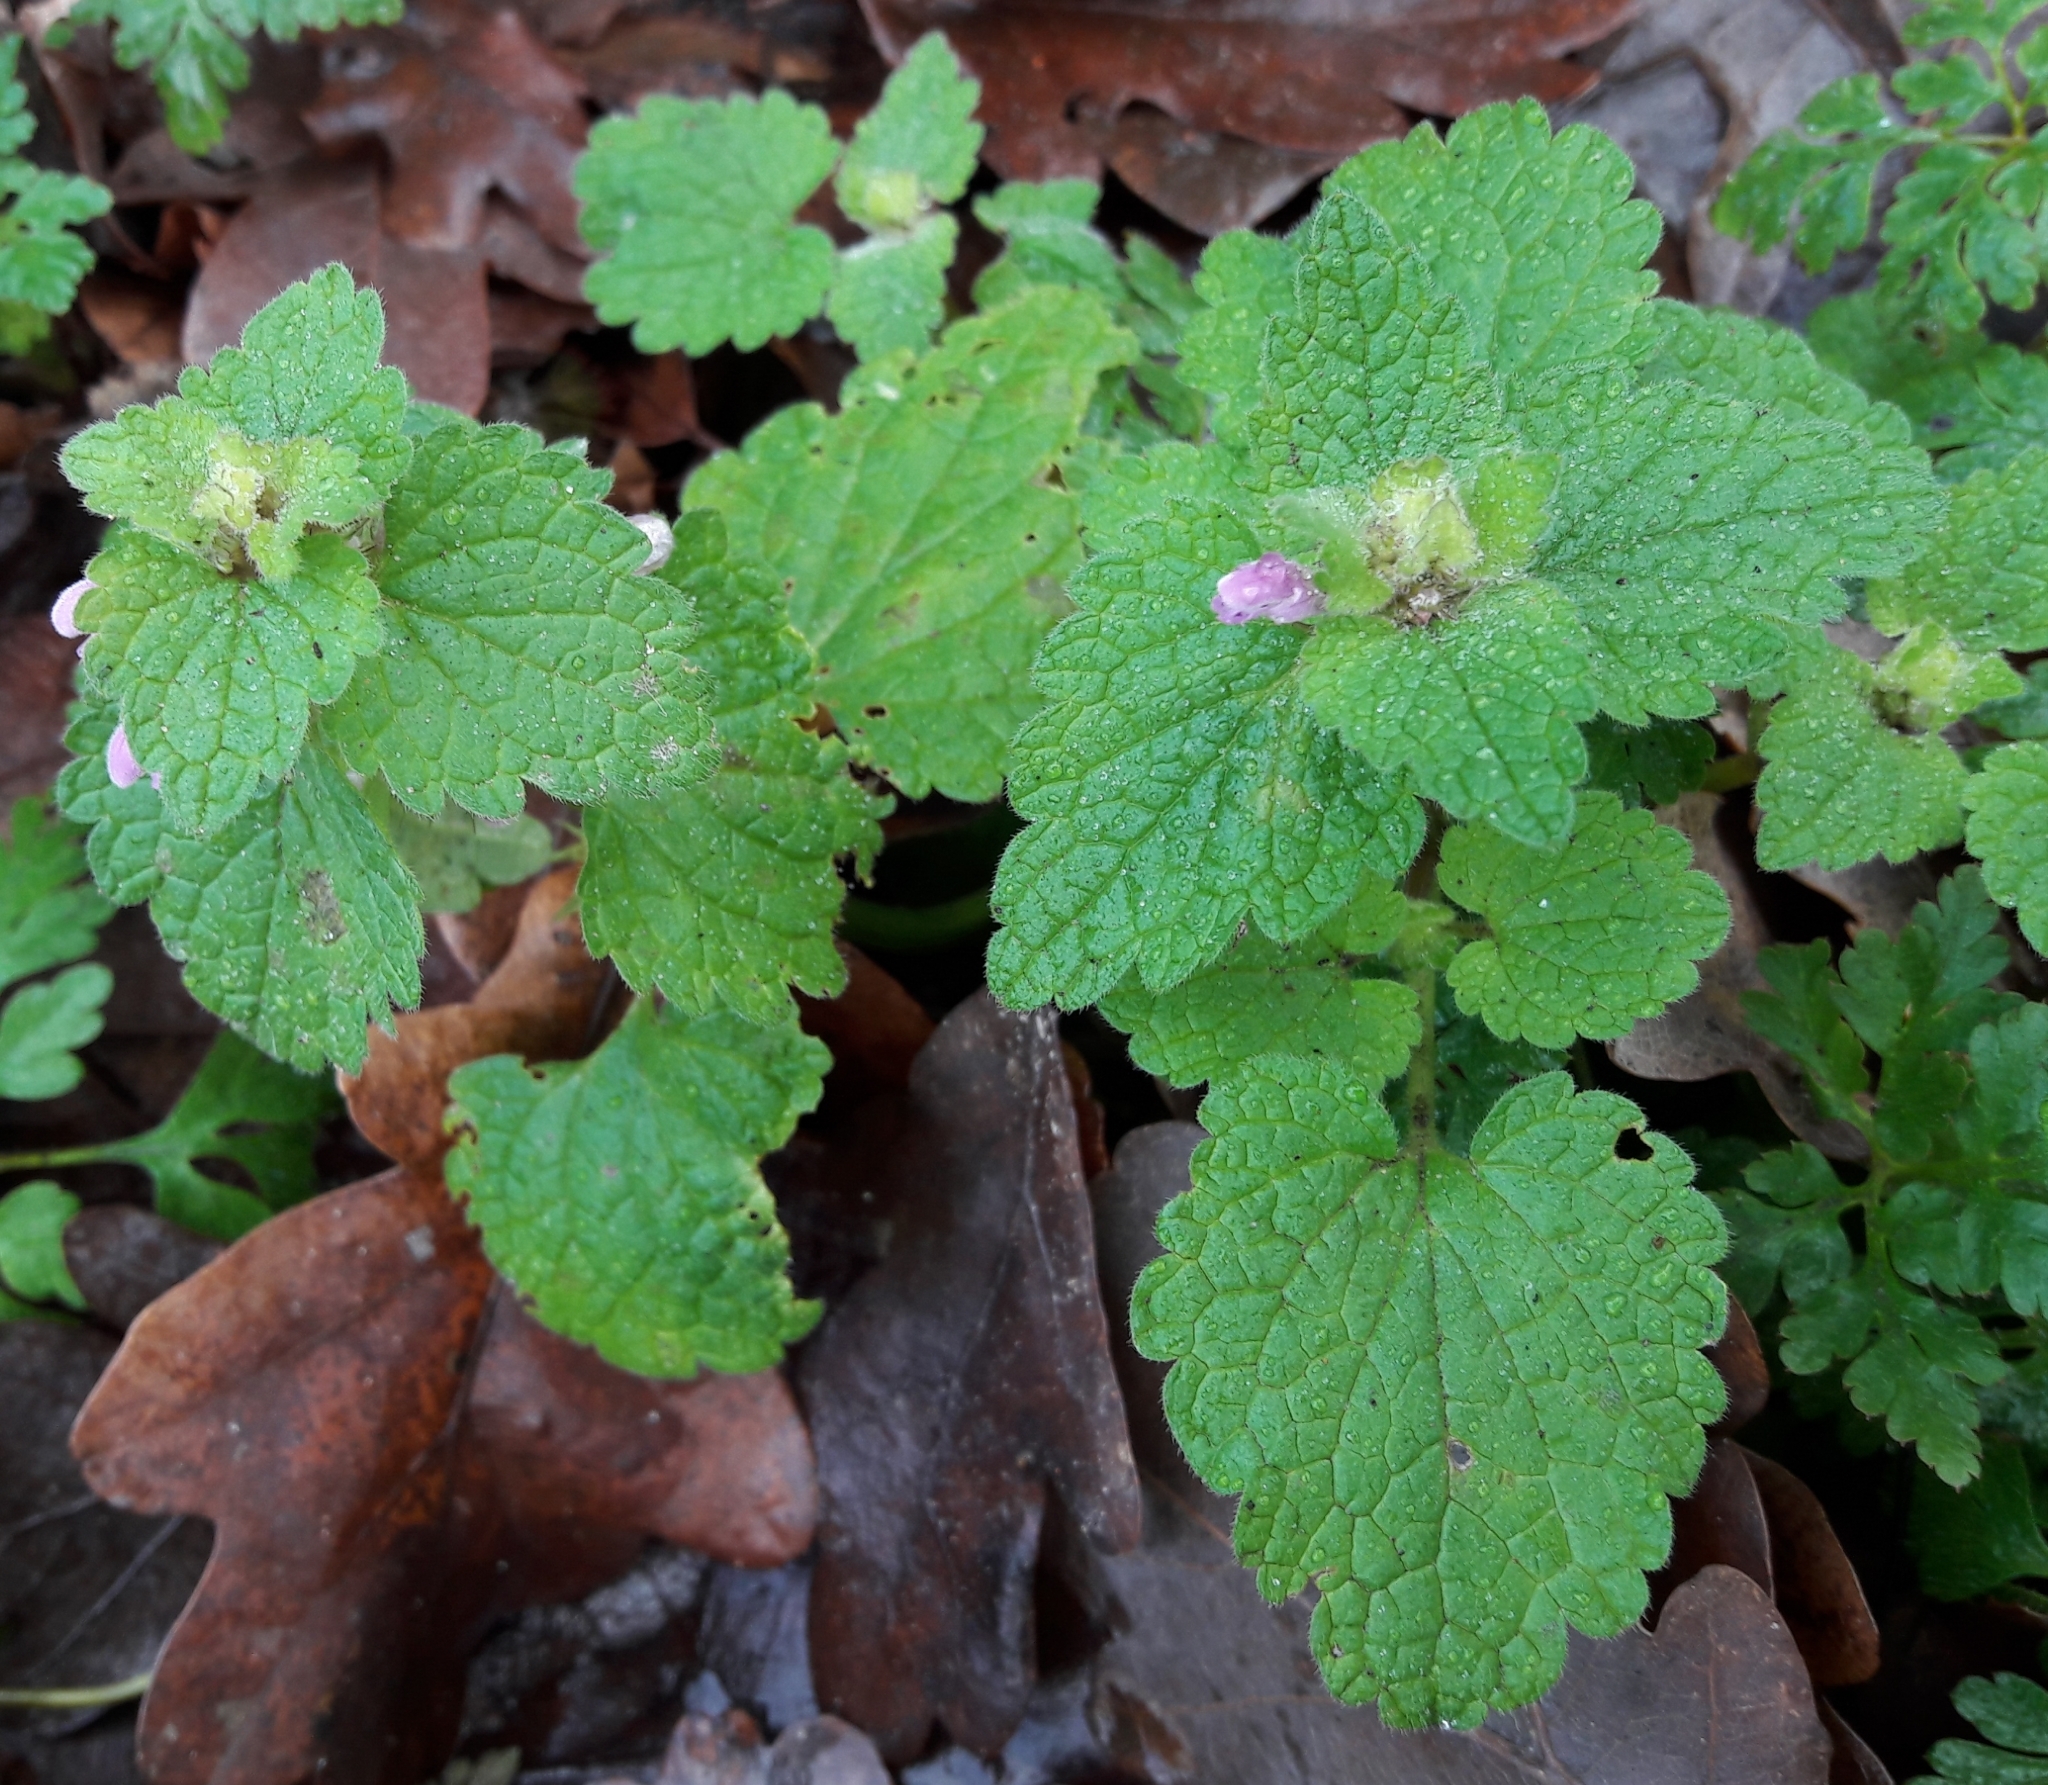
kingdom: Plantae
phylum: Tracheophyta
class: Magnoliopsida
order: Lamiales
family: Lamiaceae
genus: Lamium
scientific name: Lamium purpureum
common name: Red dead-nettle
